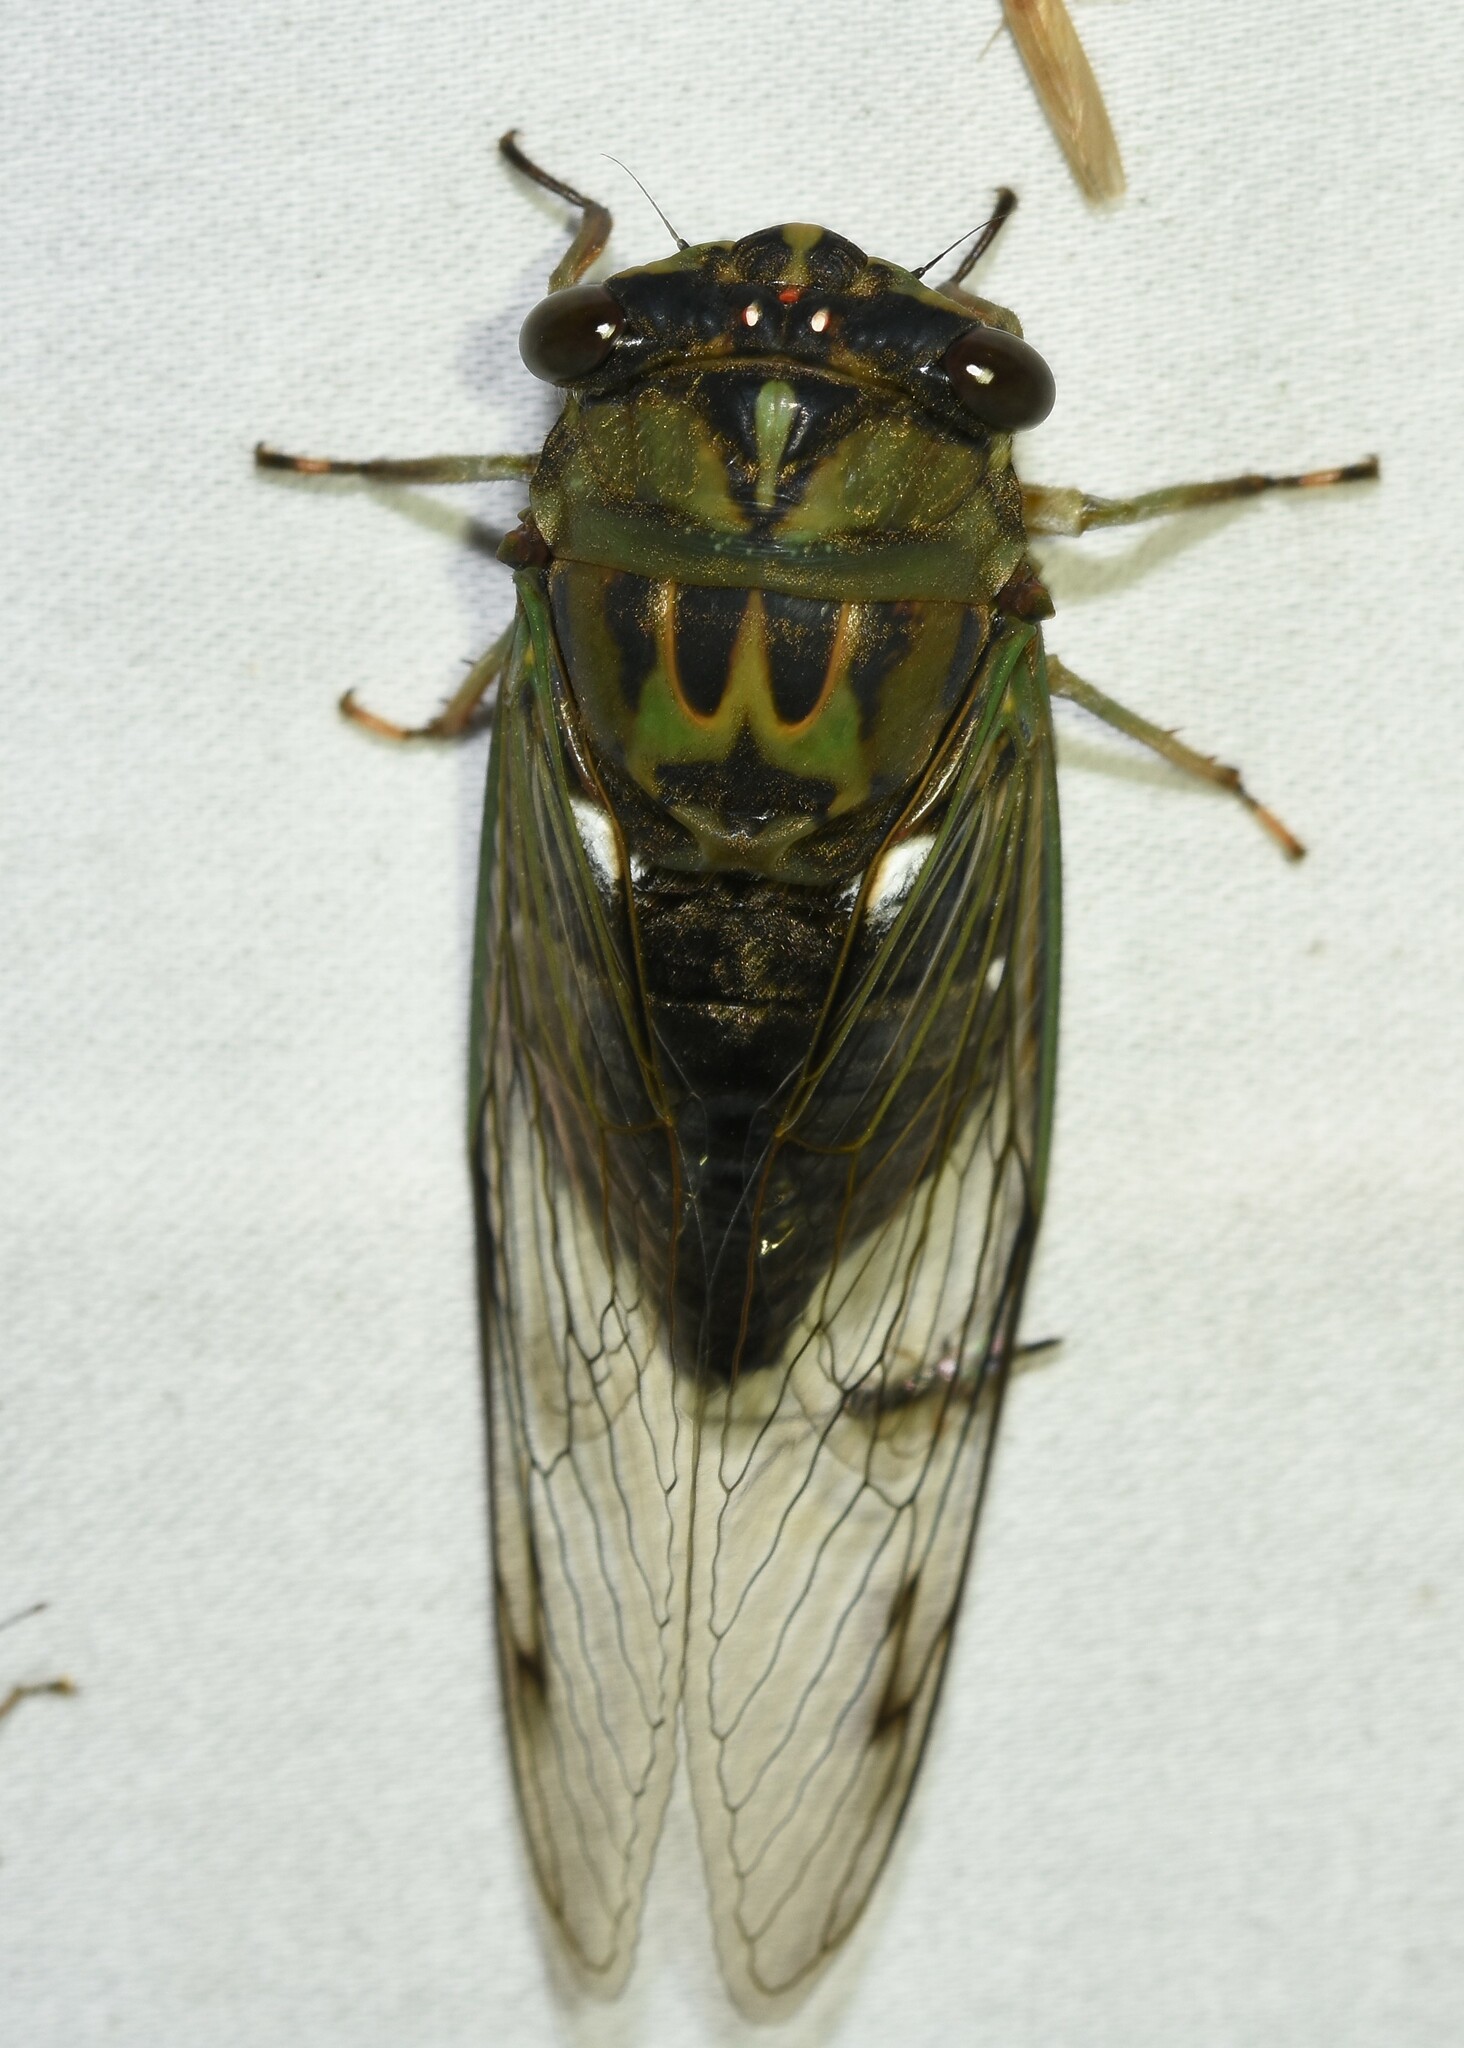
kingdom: Animalia
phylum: Arthropoda
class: Insecta
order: Hemiptera
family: Cicadidae
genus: Neotibicen
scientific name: Neotibicen pruinosus
